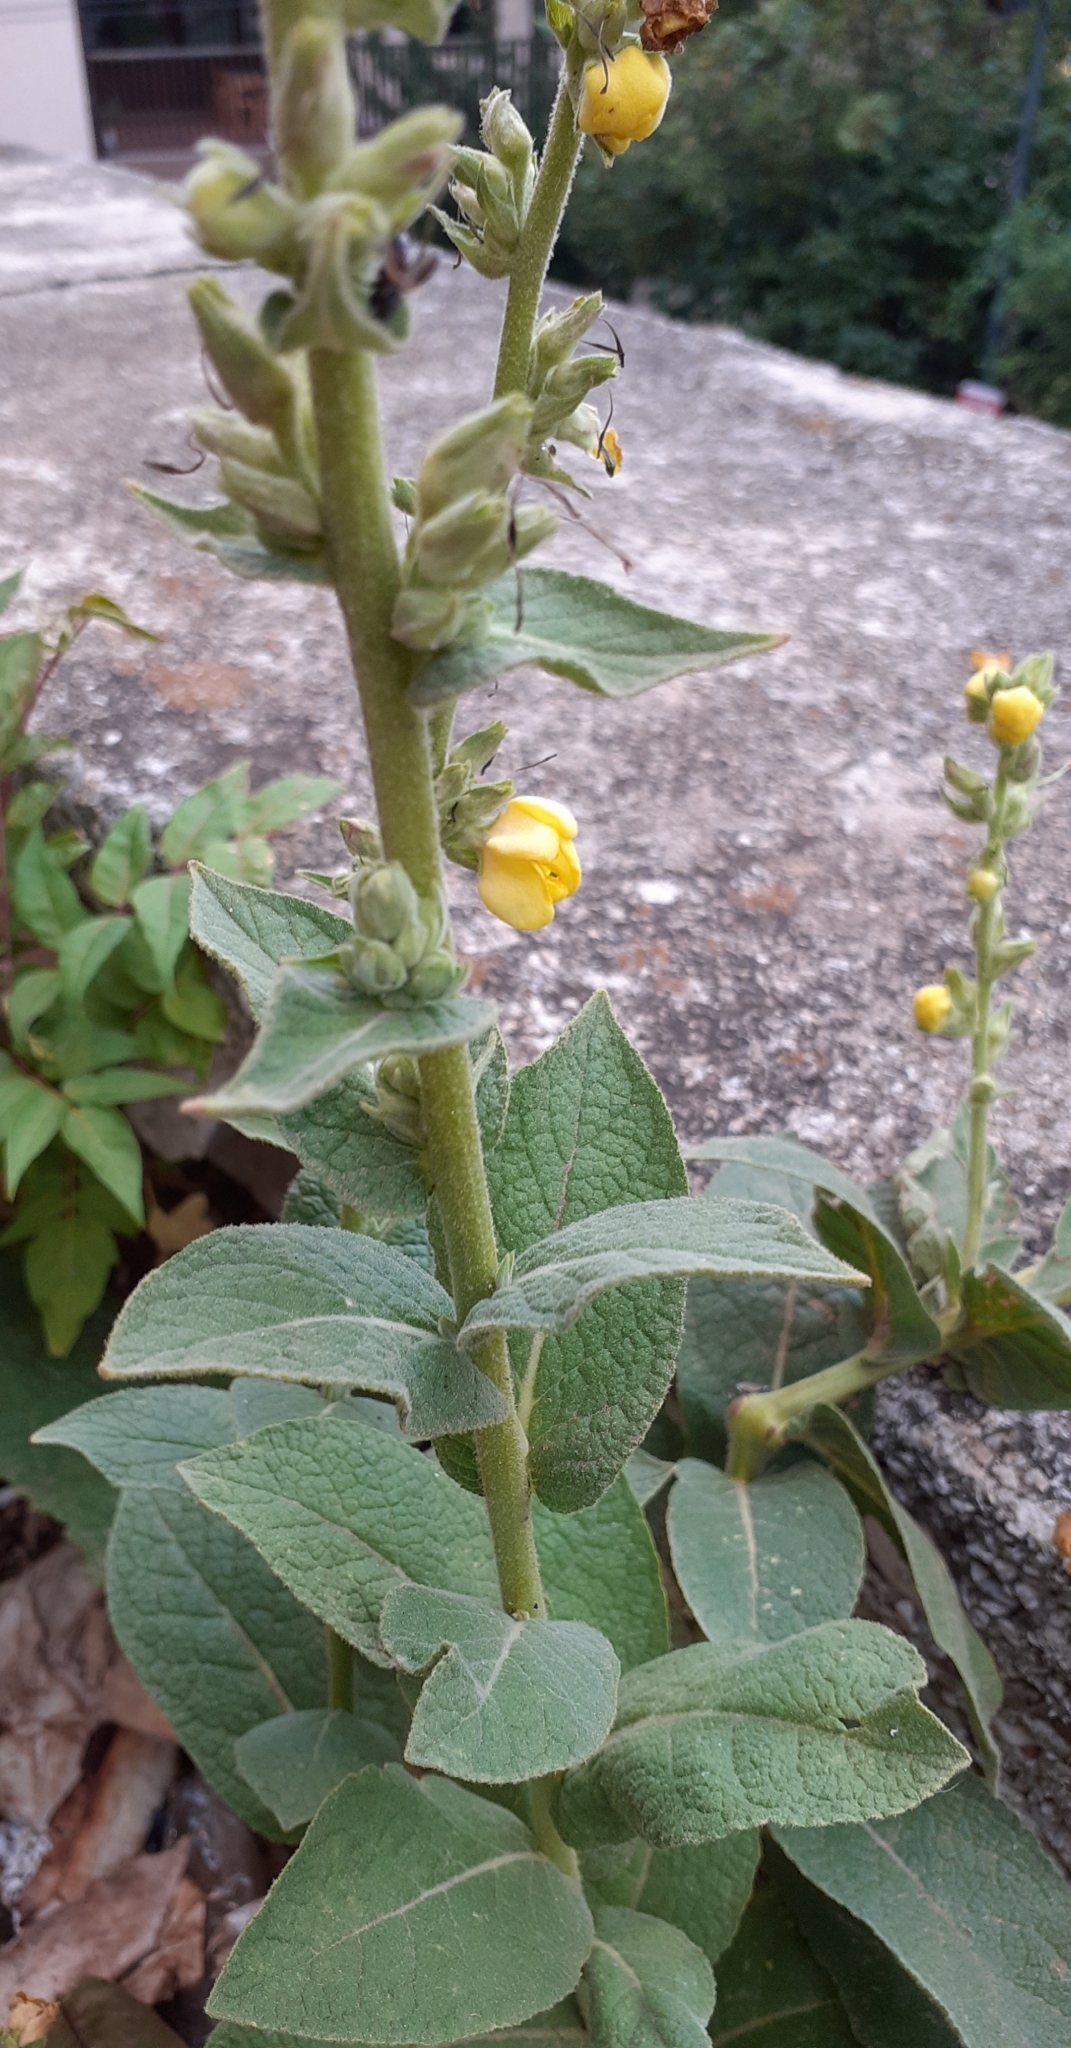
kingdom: Plantae
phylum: Tracheophyta
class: Magnoliopsida
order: Lamiales
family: Scrophulariaceae
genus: Verbascum
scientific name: Verbascum phlomoides
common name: Orange mullein
